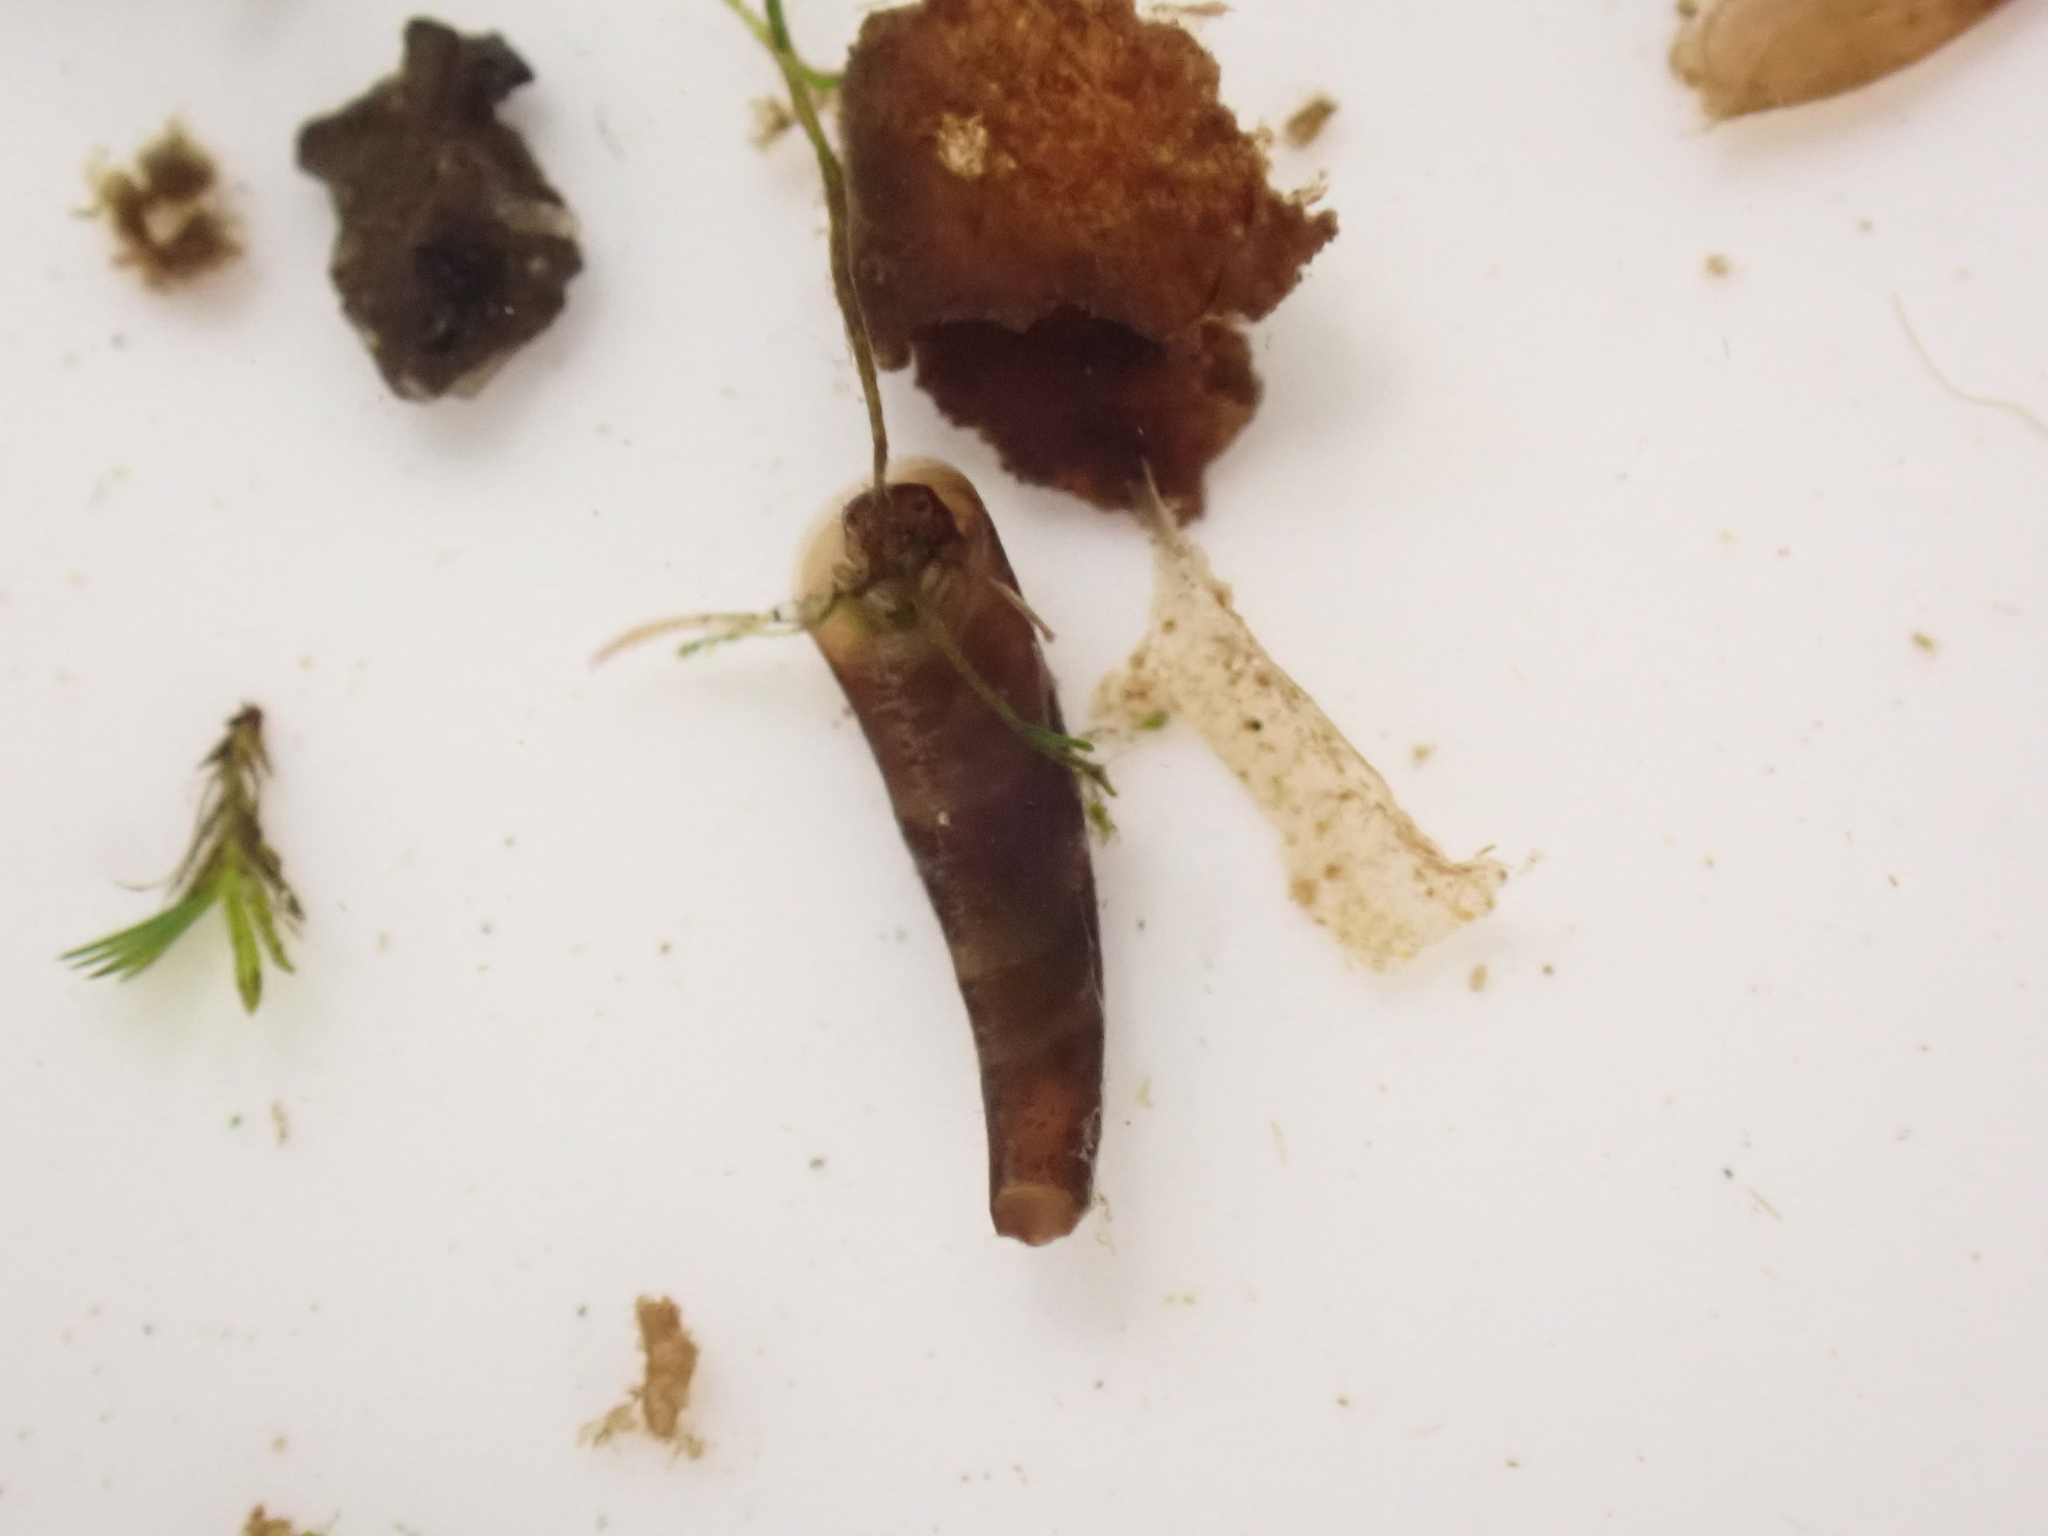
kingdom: Animalia
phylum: Arthropoda
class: Insecta
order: Trichoptera
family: Conoesucidae
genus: Beraeoptera
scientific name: Beraeoptera roria
